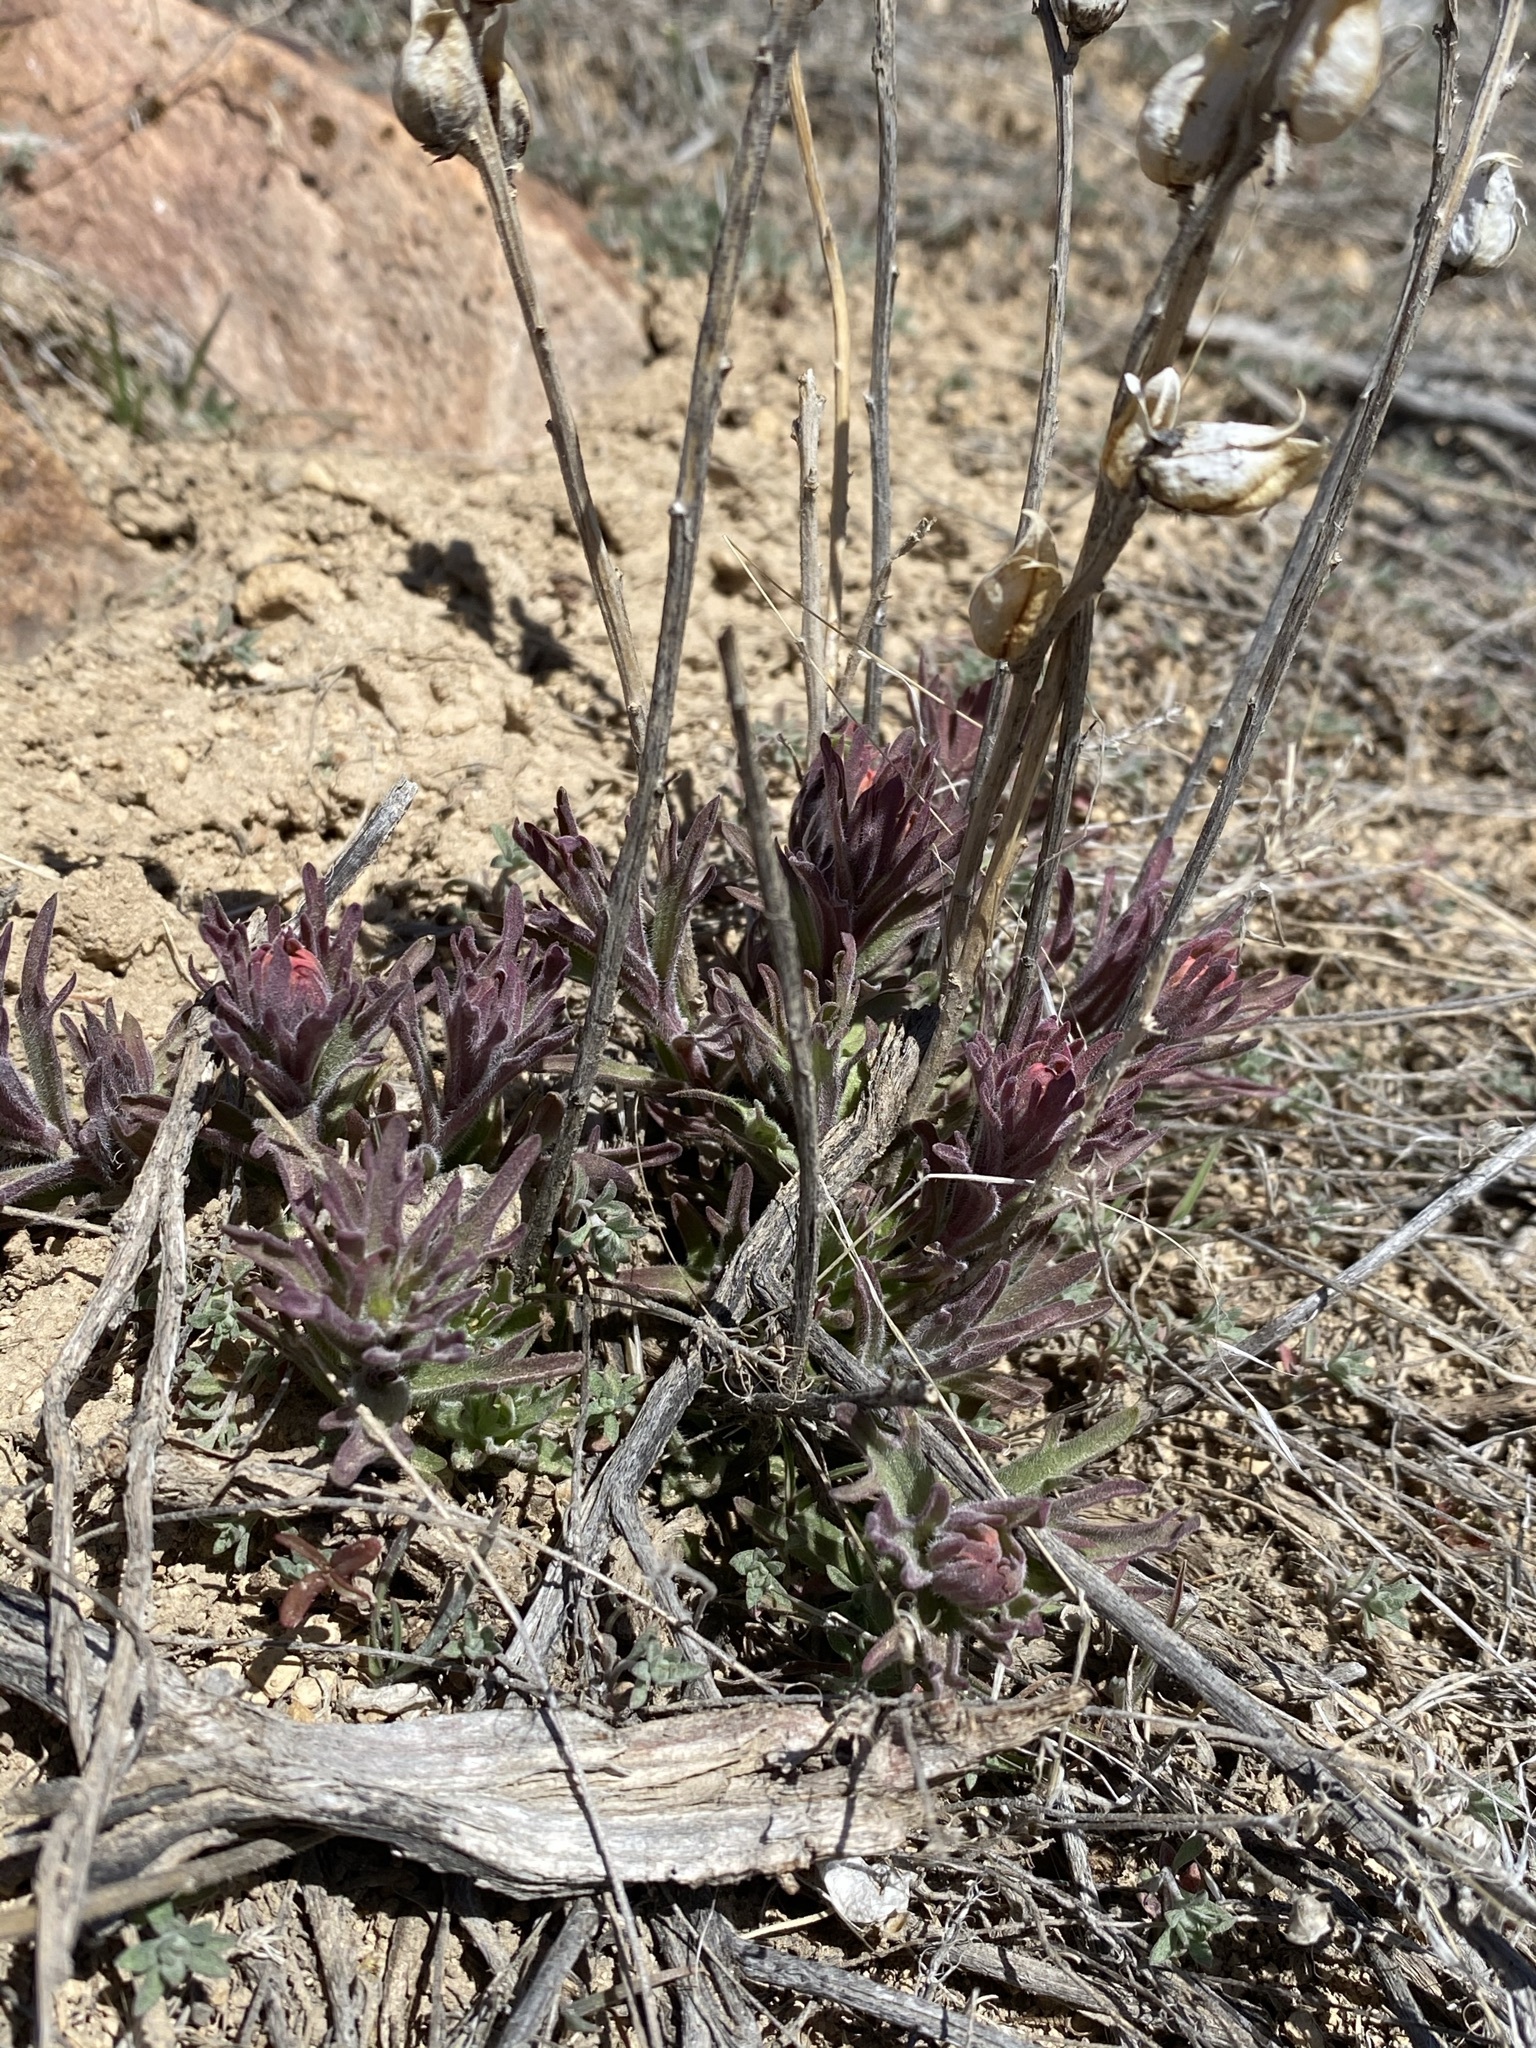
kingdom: Plantae
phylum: Tracheophyta
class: Magnoliopsida
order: Lamiales
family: Orobanchaceae
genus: Castilleja
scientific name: Castilleja chromosa
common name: Desert paintbrush
